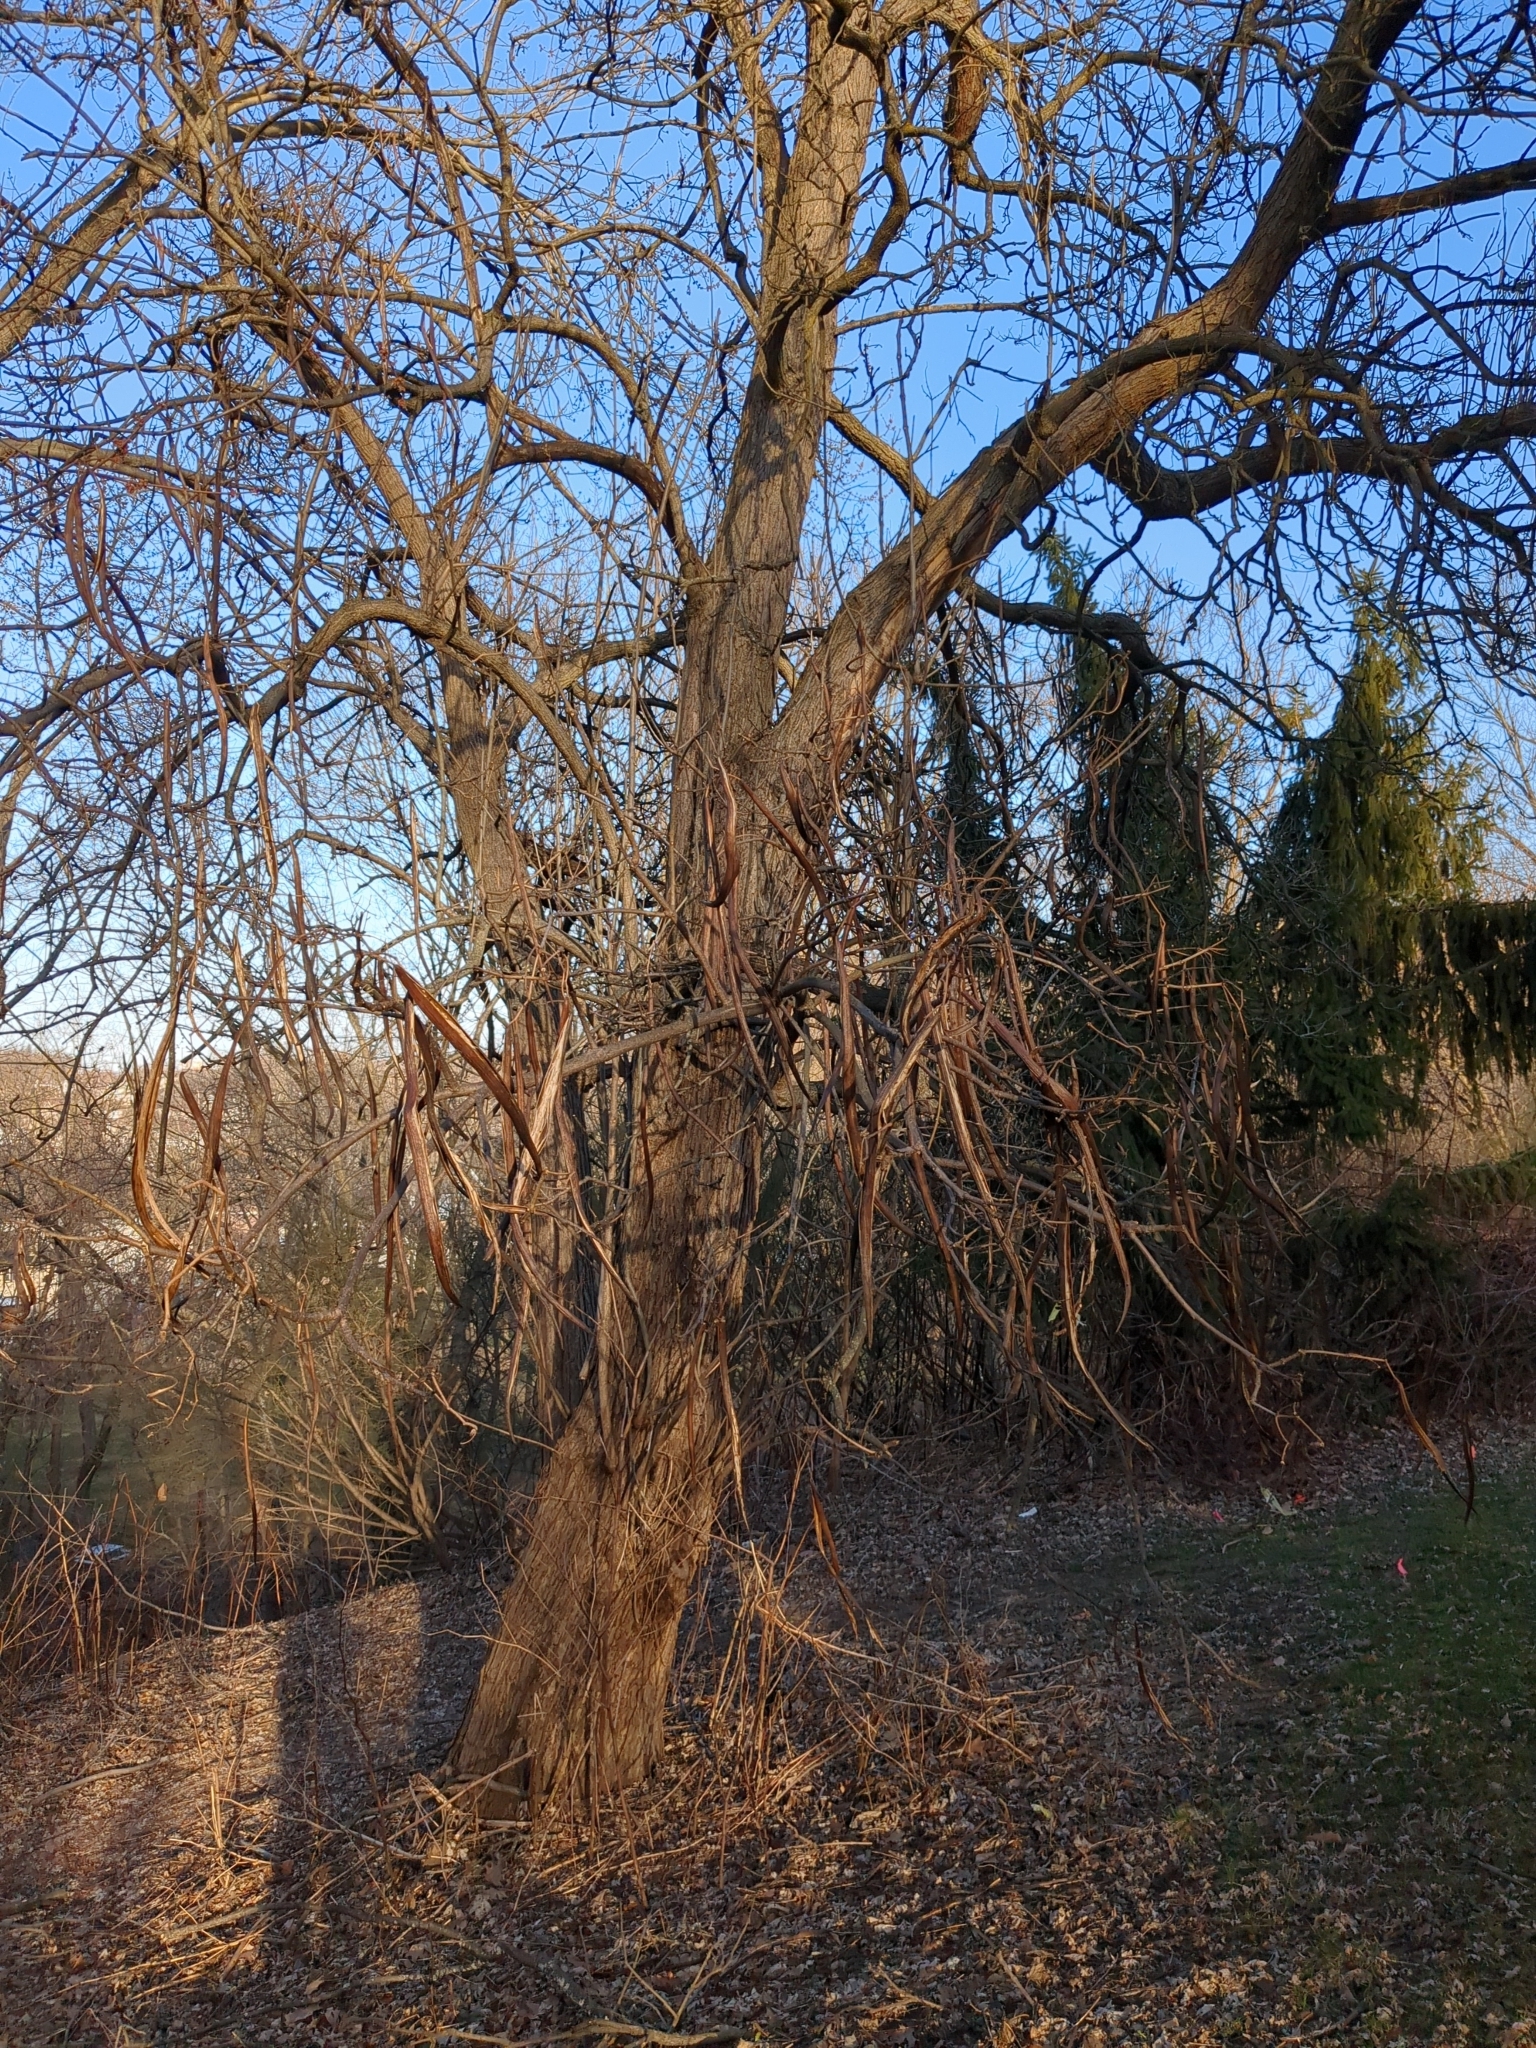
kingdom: Plantae
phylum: Tracheophyta
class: Magnoliopsida
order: Lamiales
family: Bignoniaceae
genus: Catalpa
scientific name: Catalpa speciosa
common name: Northern catalpa
